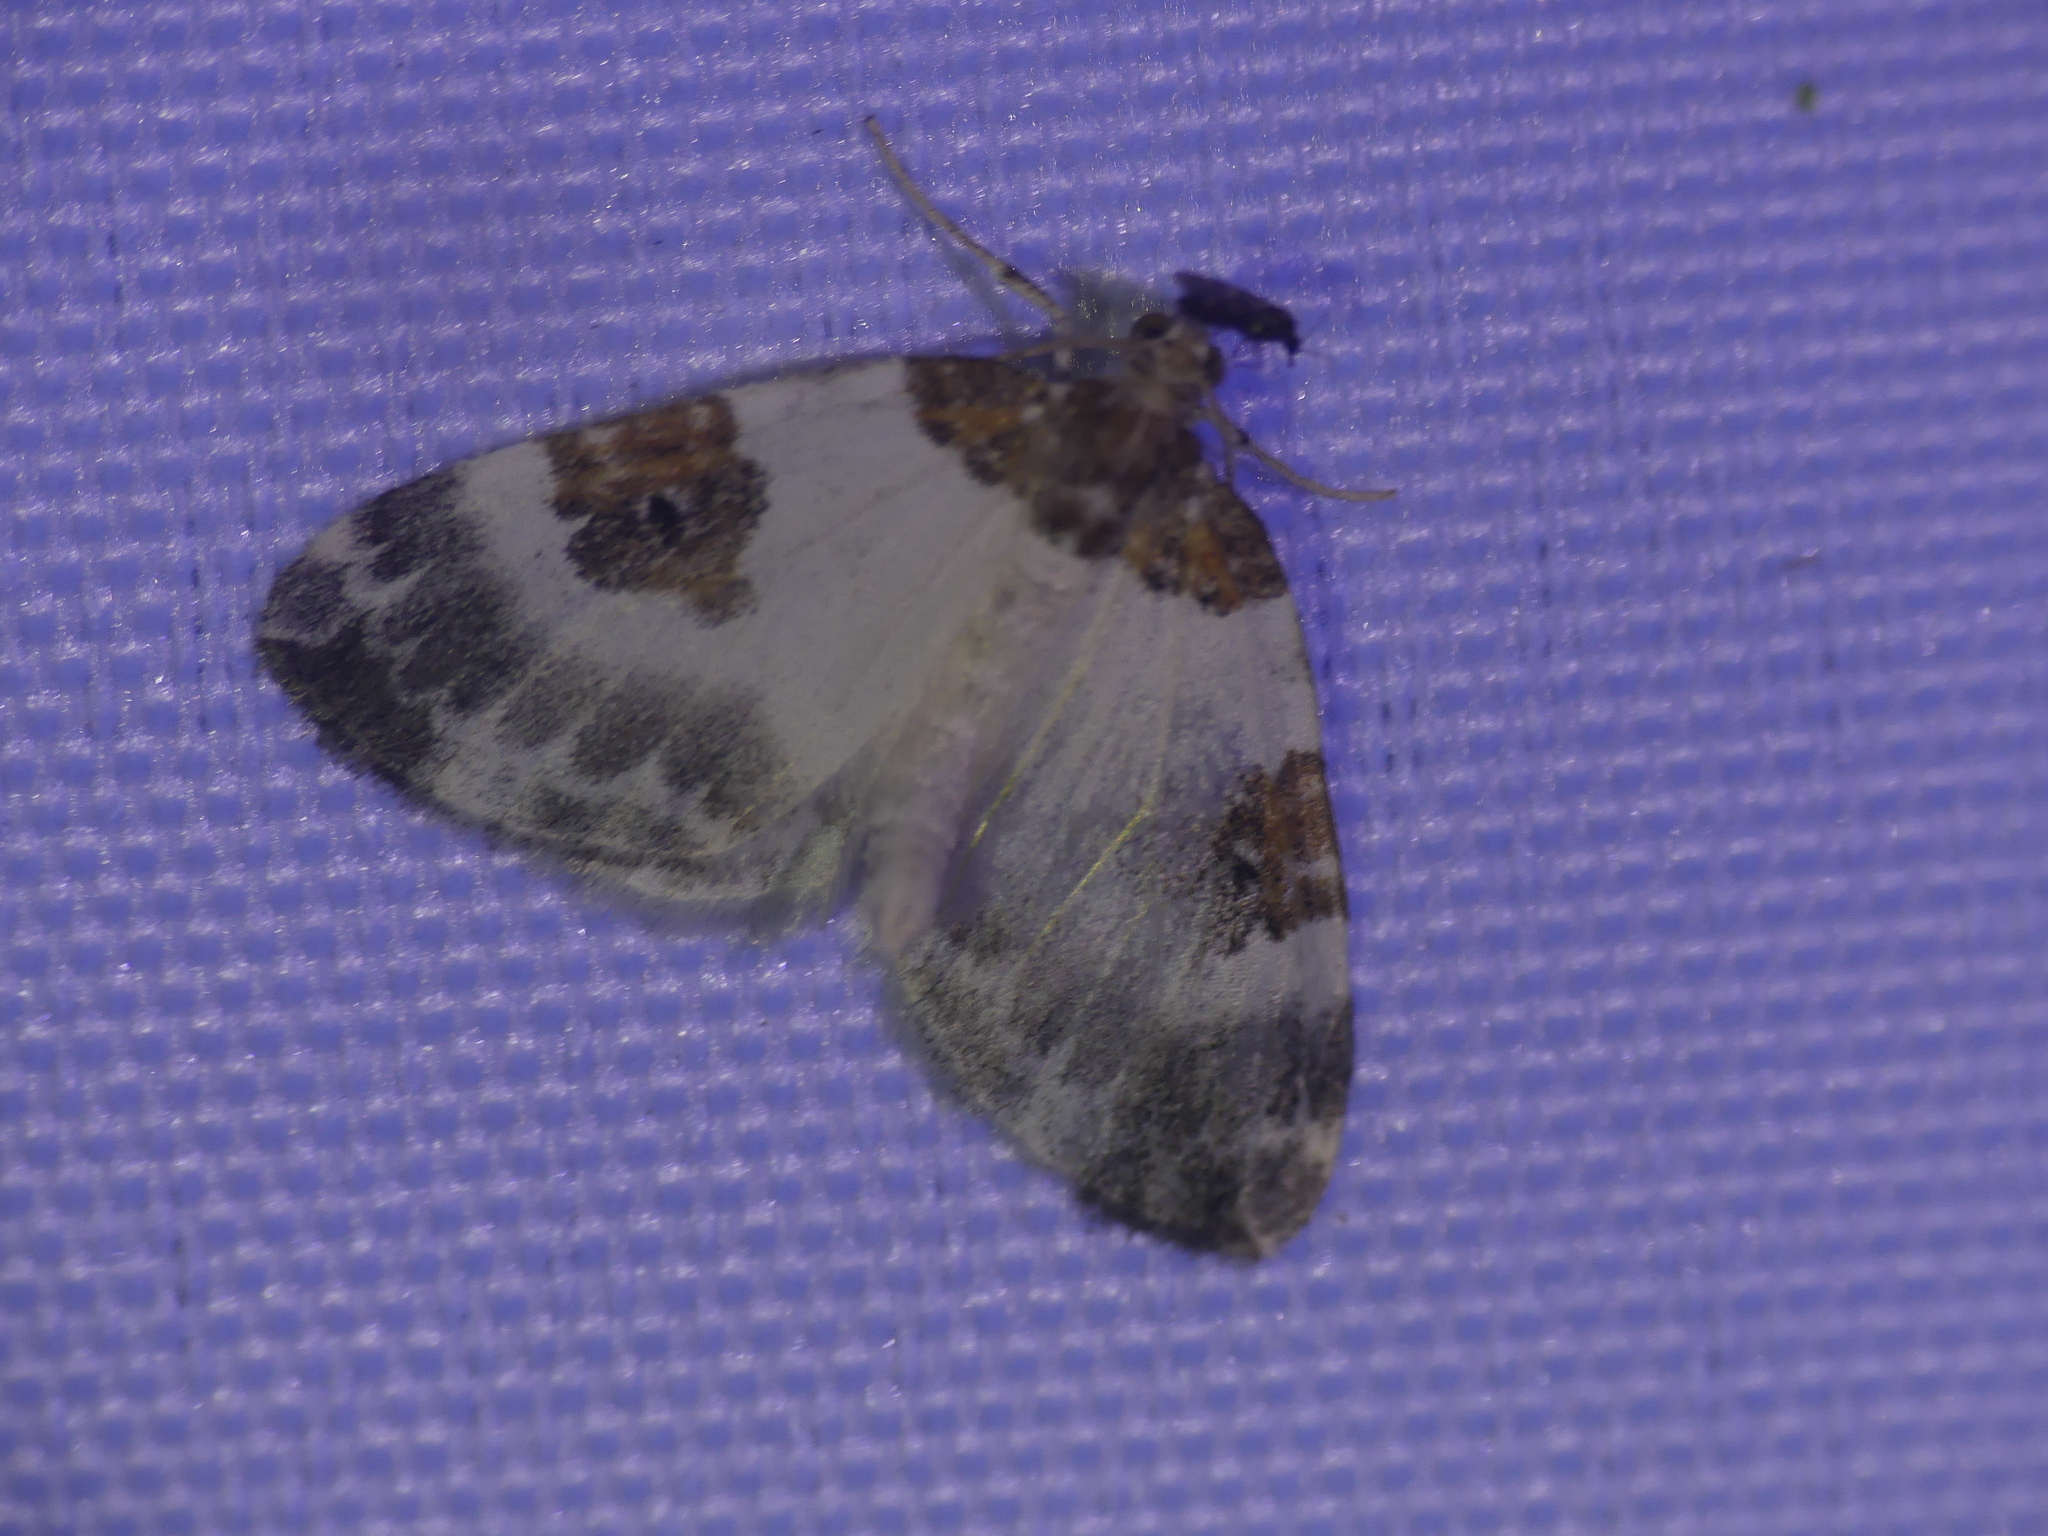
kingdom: Animalia
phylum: Arthropoda
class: Insecta
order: Lepidoptera
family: Geometridae
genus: Plemyria
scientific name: Plemyria rubiginata
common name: Blue-bordered carpet
